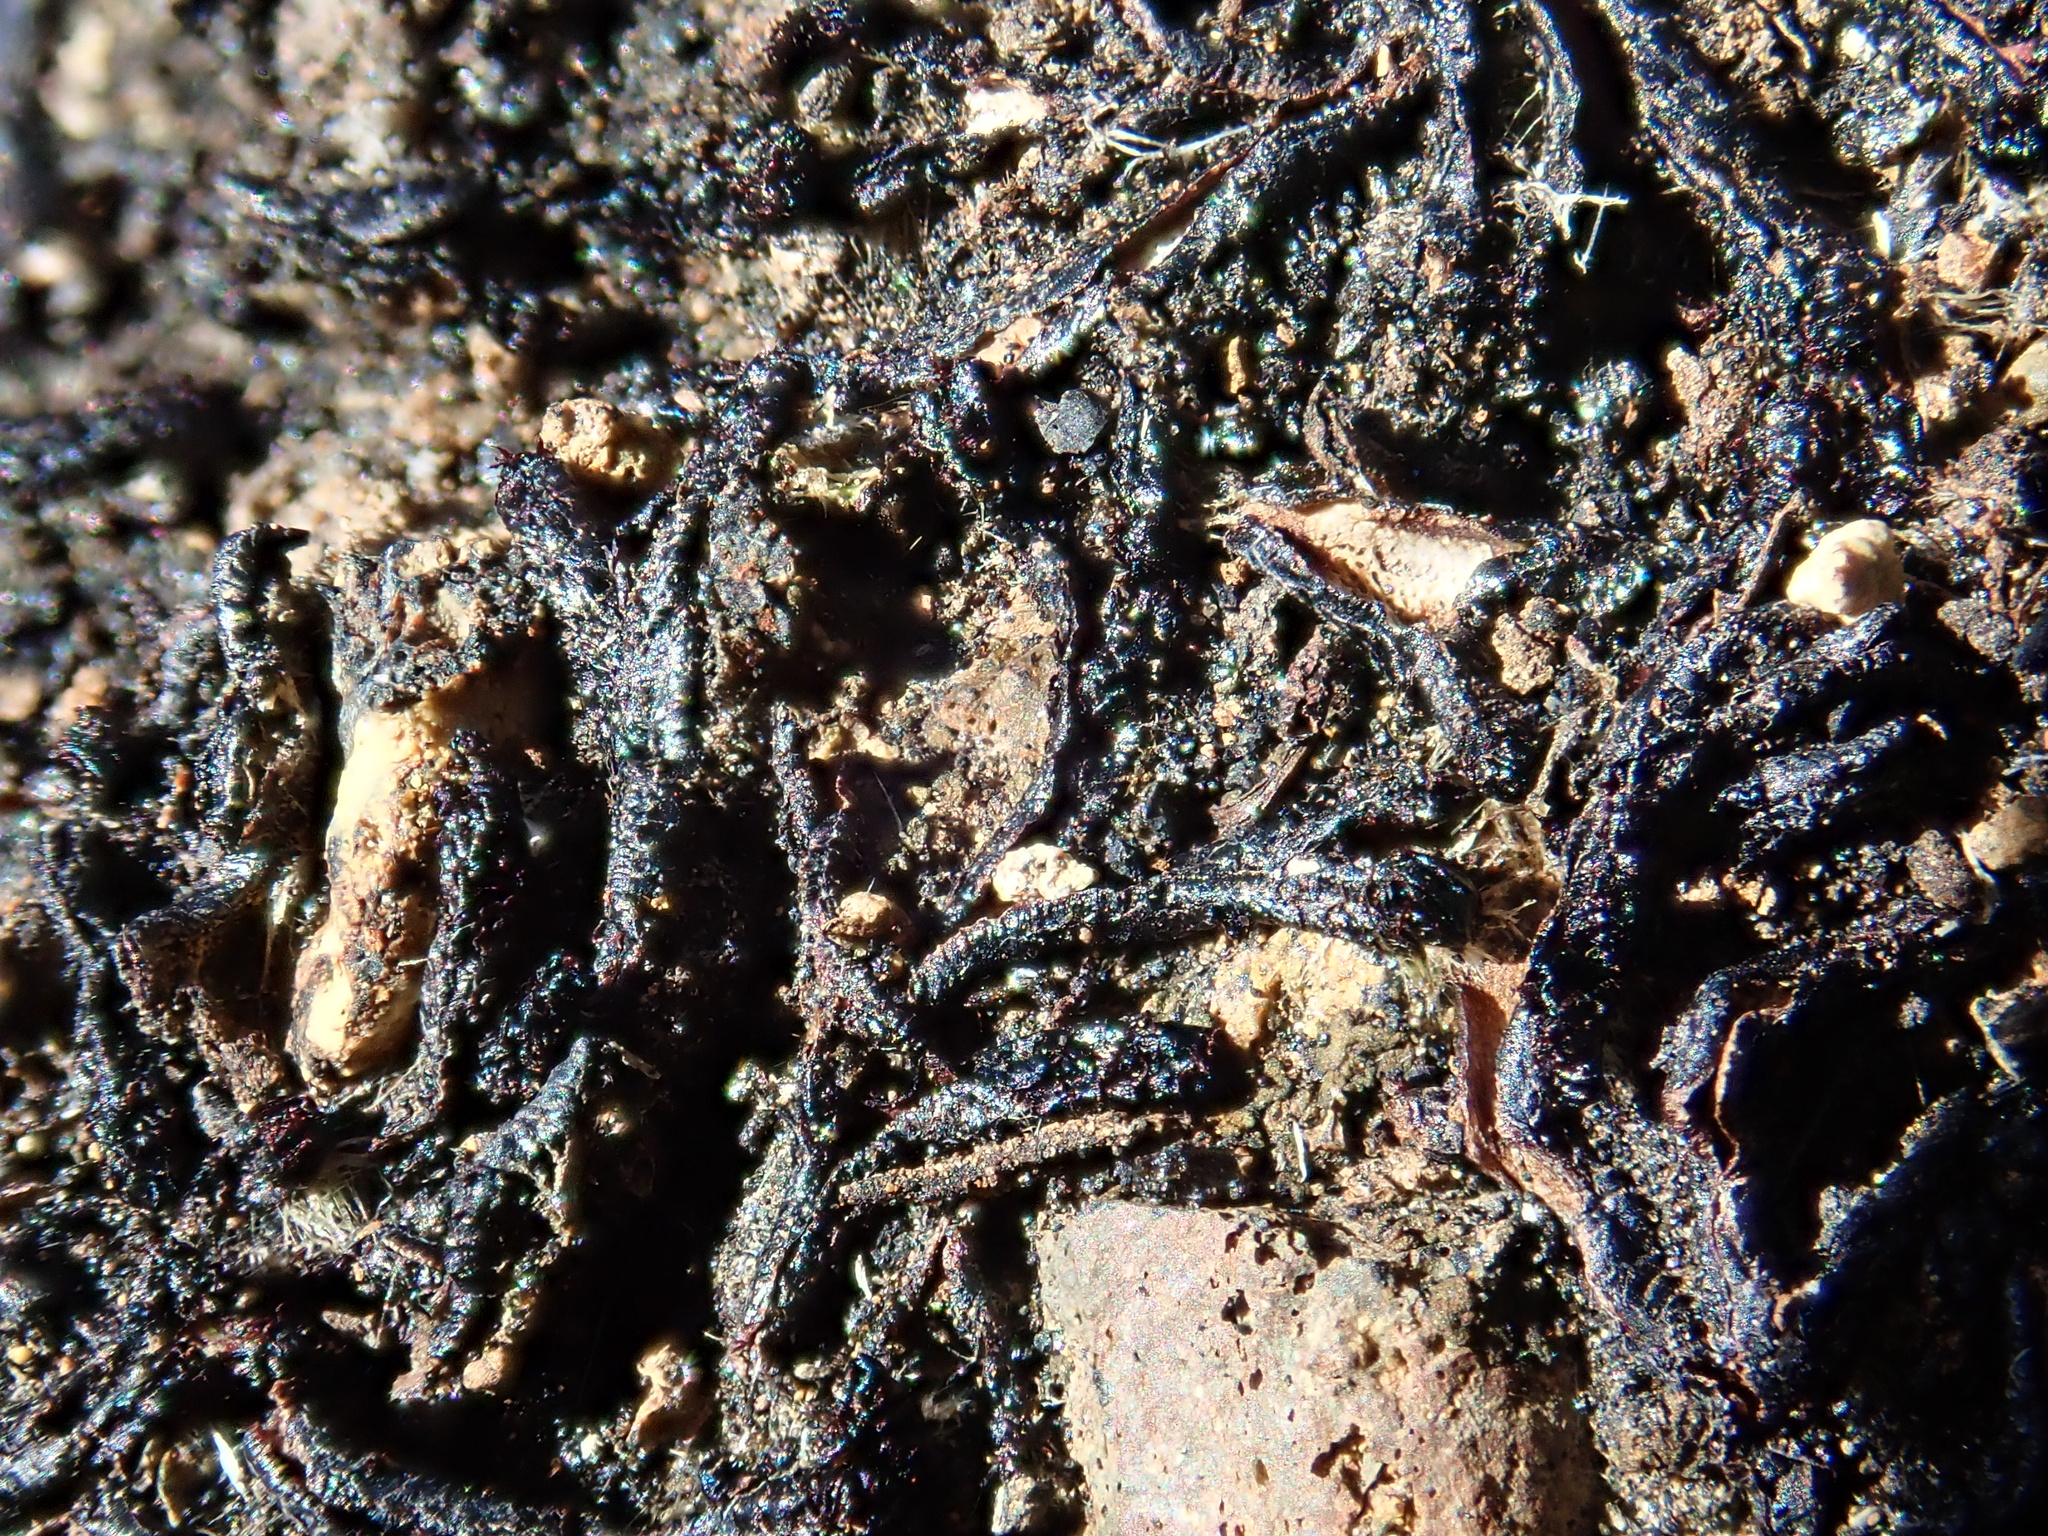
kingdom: Plantae
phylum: Marchantiophyta
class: Marchantiopsida
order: Marchantiales
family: Aytoniaceae
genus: Mannia
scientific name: Mannia androgyna
